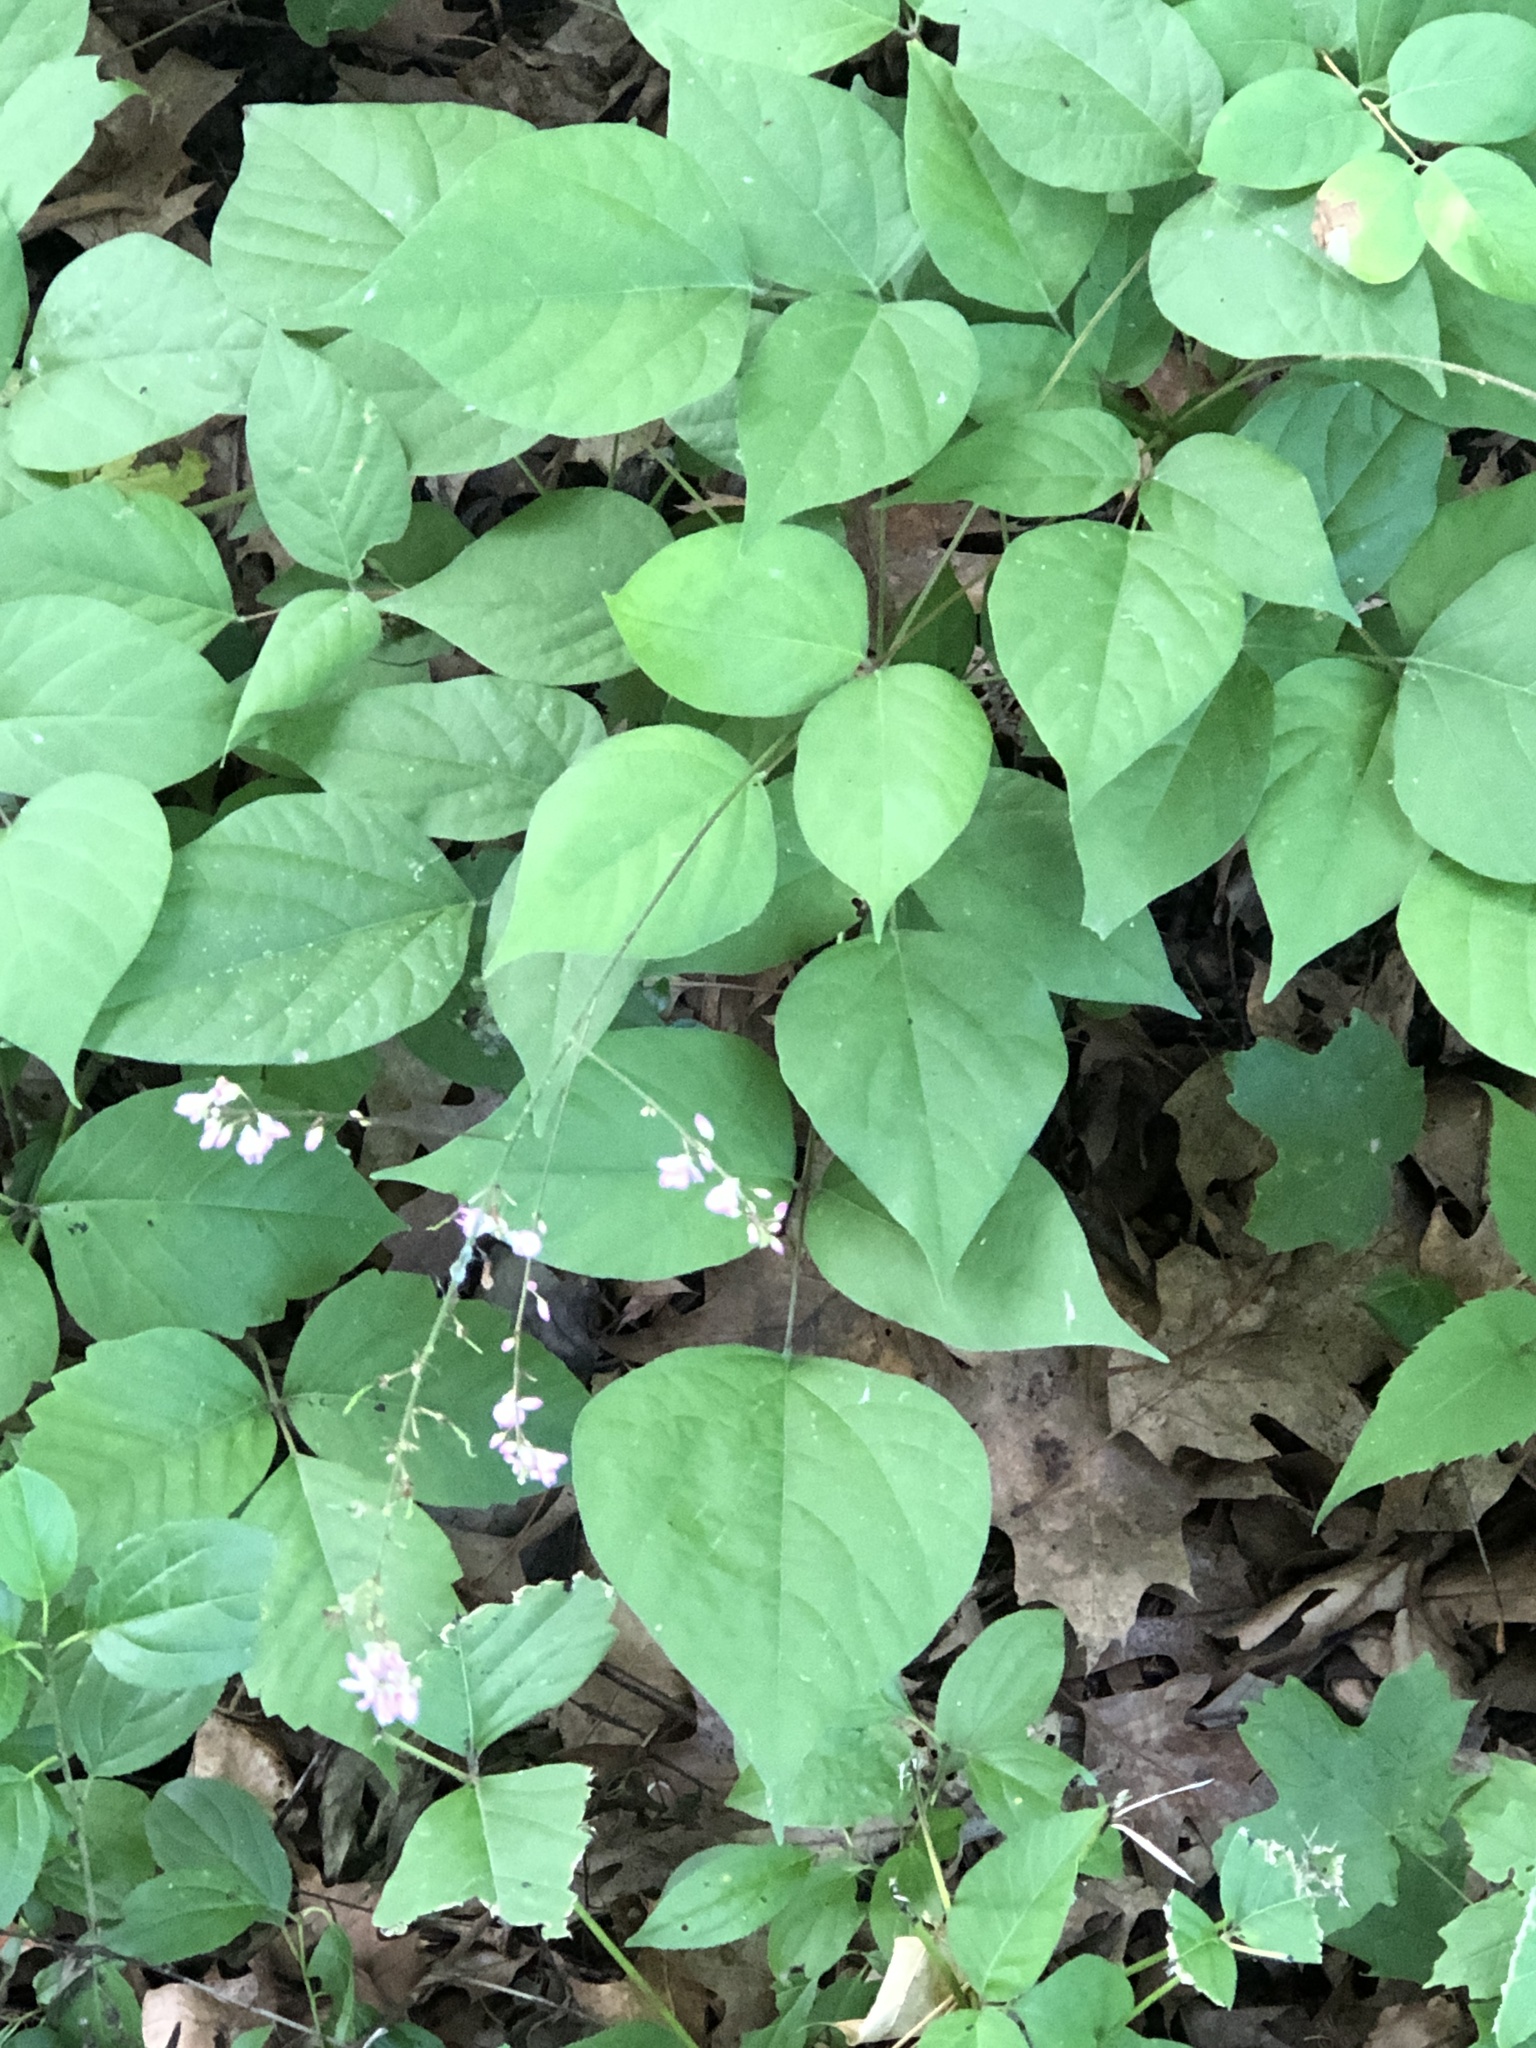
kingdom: Plantae
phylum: Tracheophyta
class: Magnoliopsida
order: Fabales
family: Fabaceae
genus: Hylodesmum
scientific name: Hylodesmum glutinosum
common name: Clustered-leaved tick-trefoil
